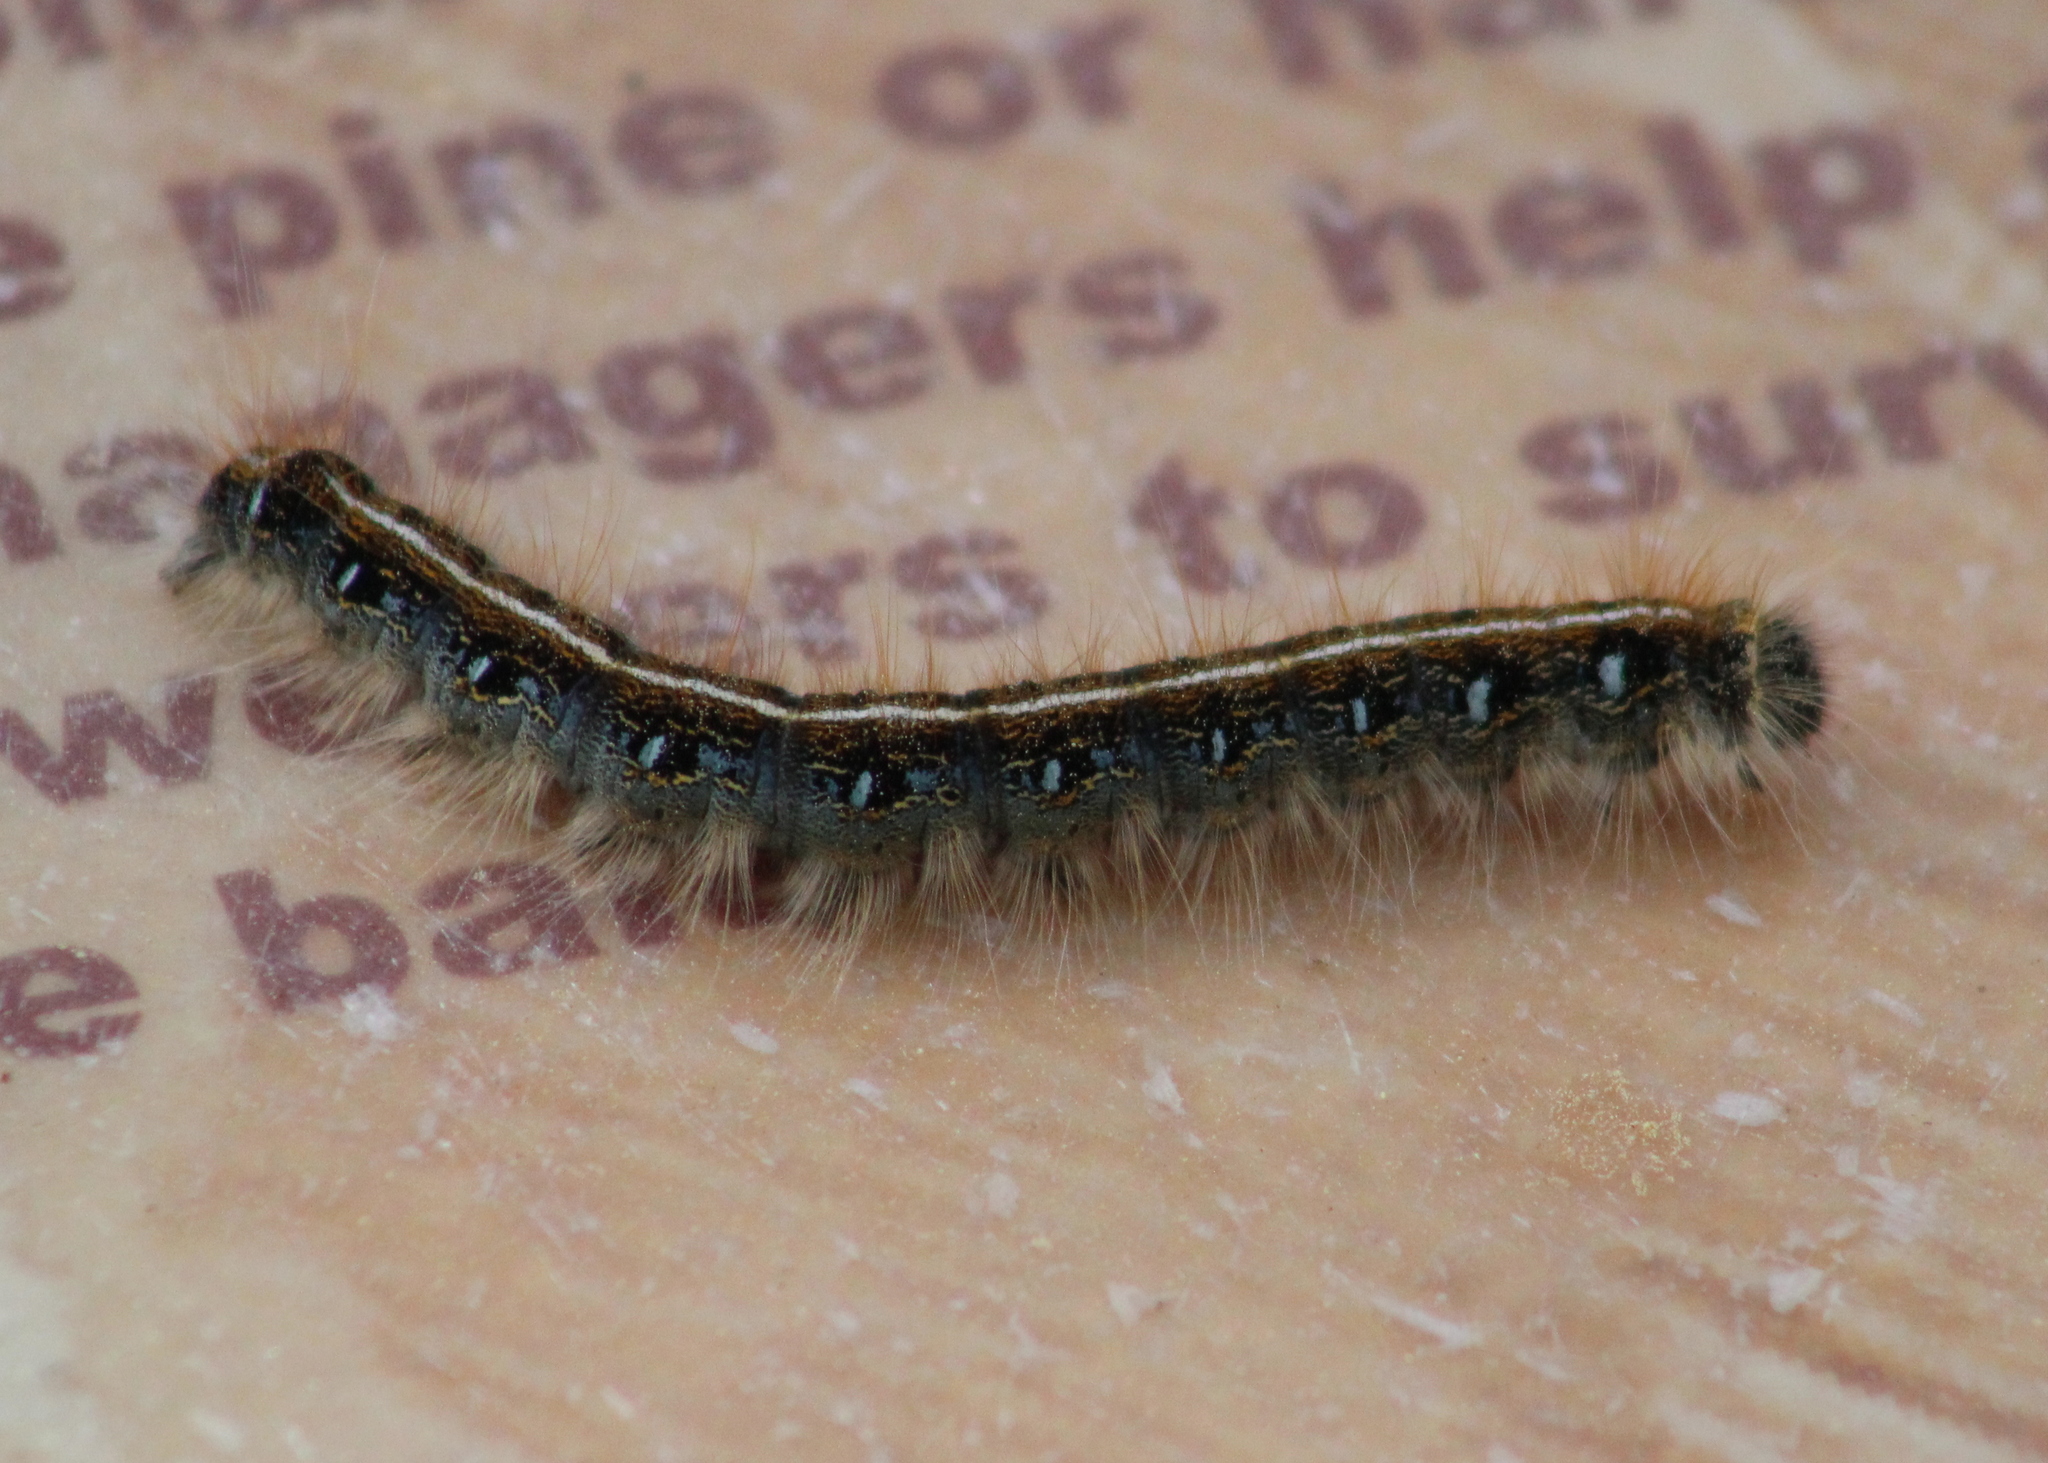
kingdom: Animalia
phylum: Arthropoda
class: Insecta
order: Lepidoptera
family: Lasiocampidae
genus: Malacosoma
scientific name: Malacosoma americana
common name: Eastern tent caterpillar moth
